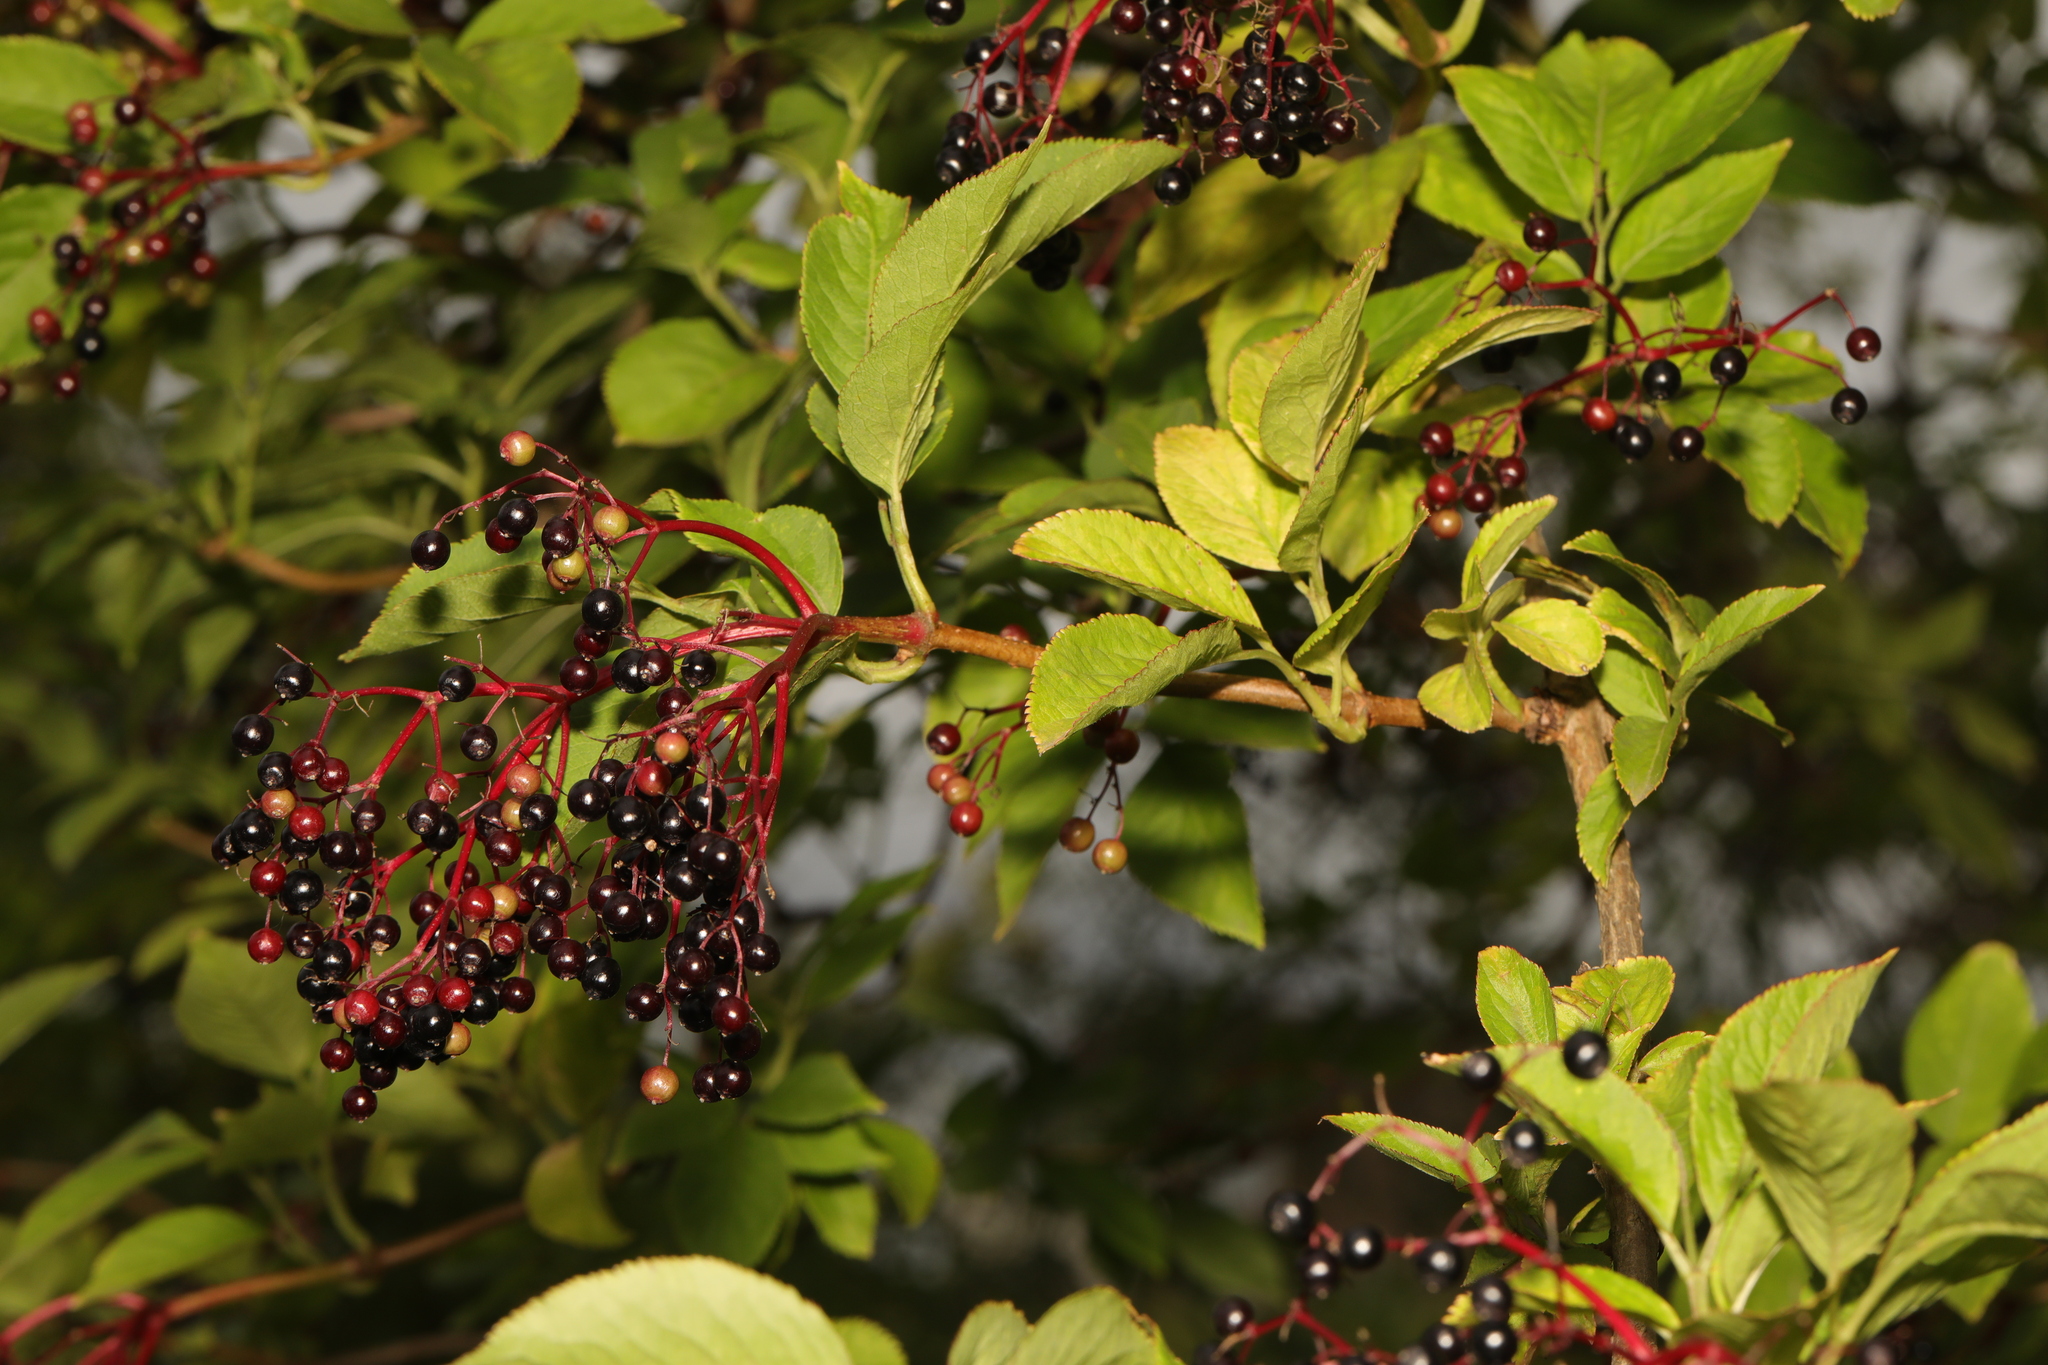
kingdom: Plantae
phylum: Tracheophyta
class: Magnoliopsida
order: Dipsacales
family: Viburnaceae
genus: Sambucus
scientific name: Sambucus nigra
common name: Elder
